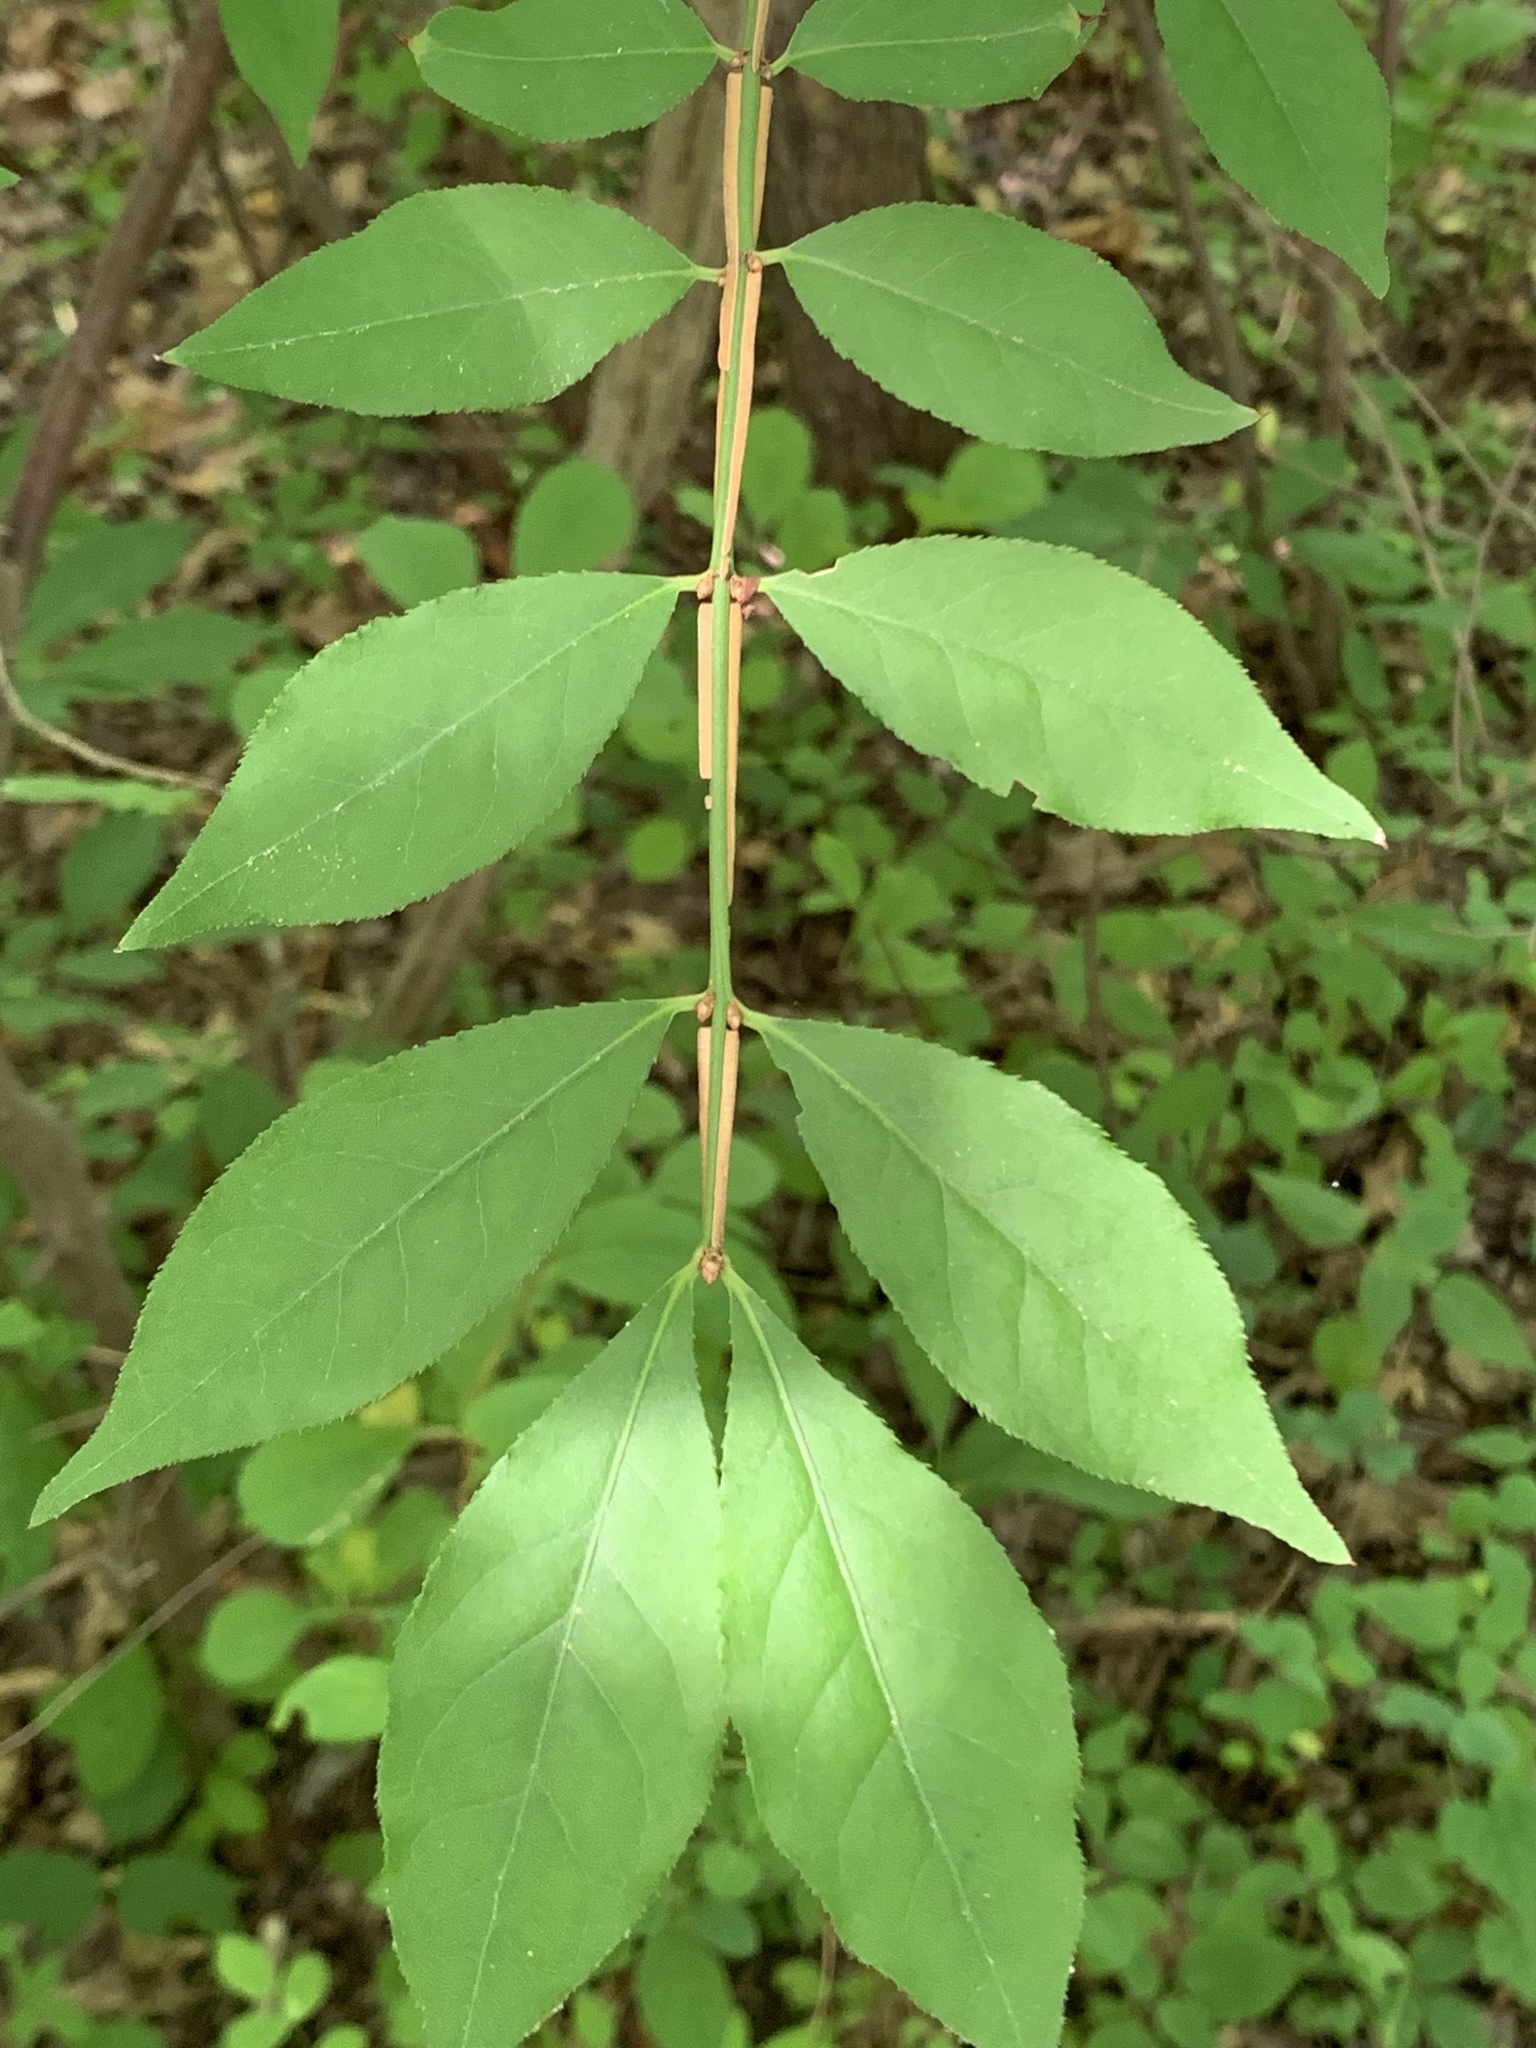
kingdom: Plantae
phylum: Tracheophyta
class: Magnoliopsida
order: Celastrales
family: Celastraceae
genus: Euonymus
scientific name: Euonymus alatus
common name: Winged euonymus
